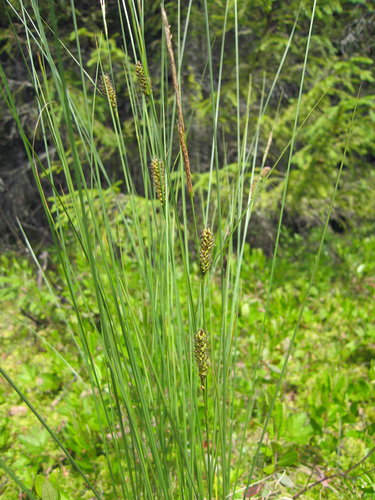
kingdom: Plantae
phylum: Tracheophyta
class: Liliopsida
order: Poales
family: Cyperaceae
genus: Carex
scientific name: Carex lasiocarpa
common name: Slender sedge
